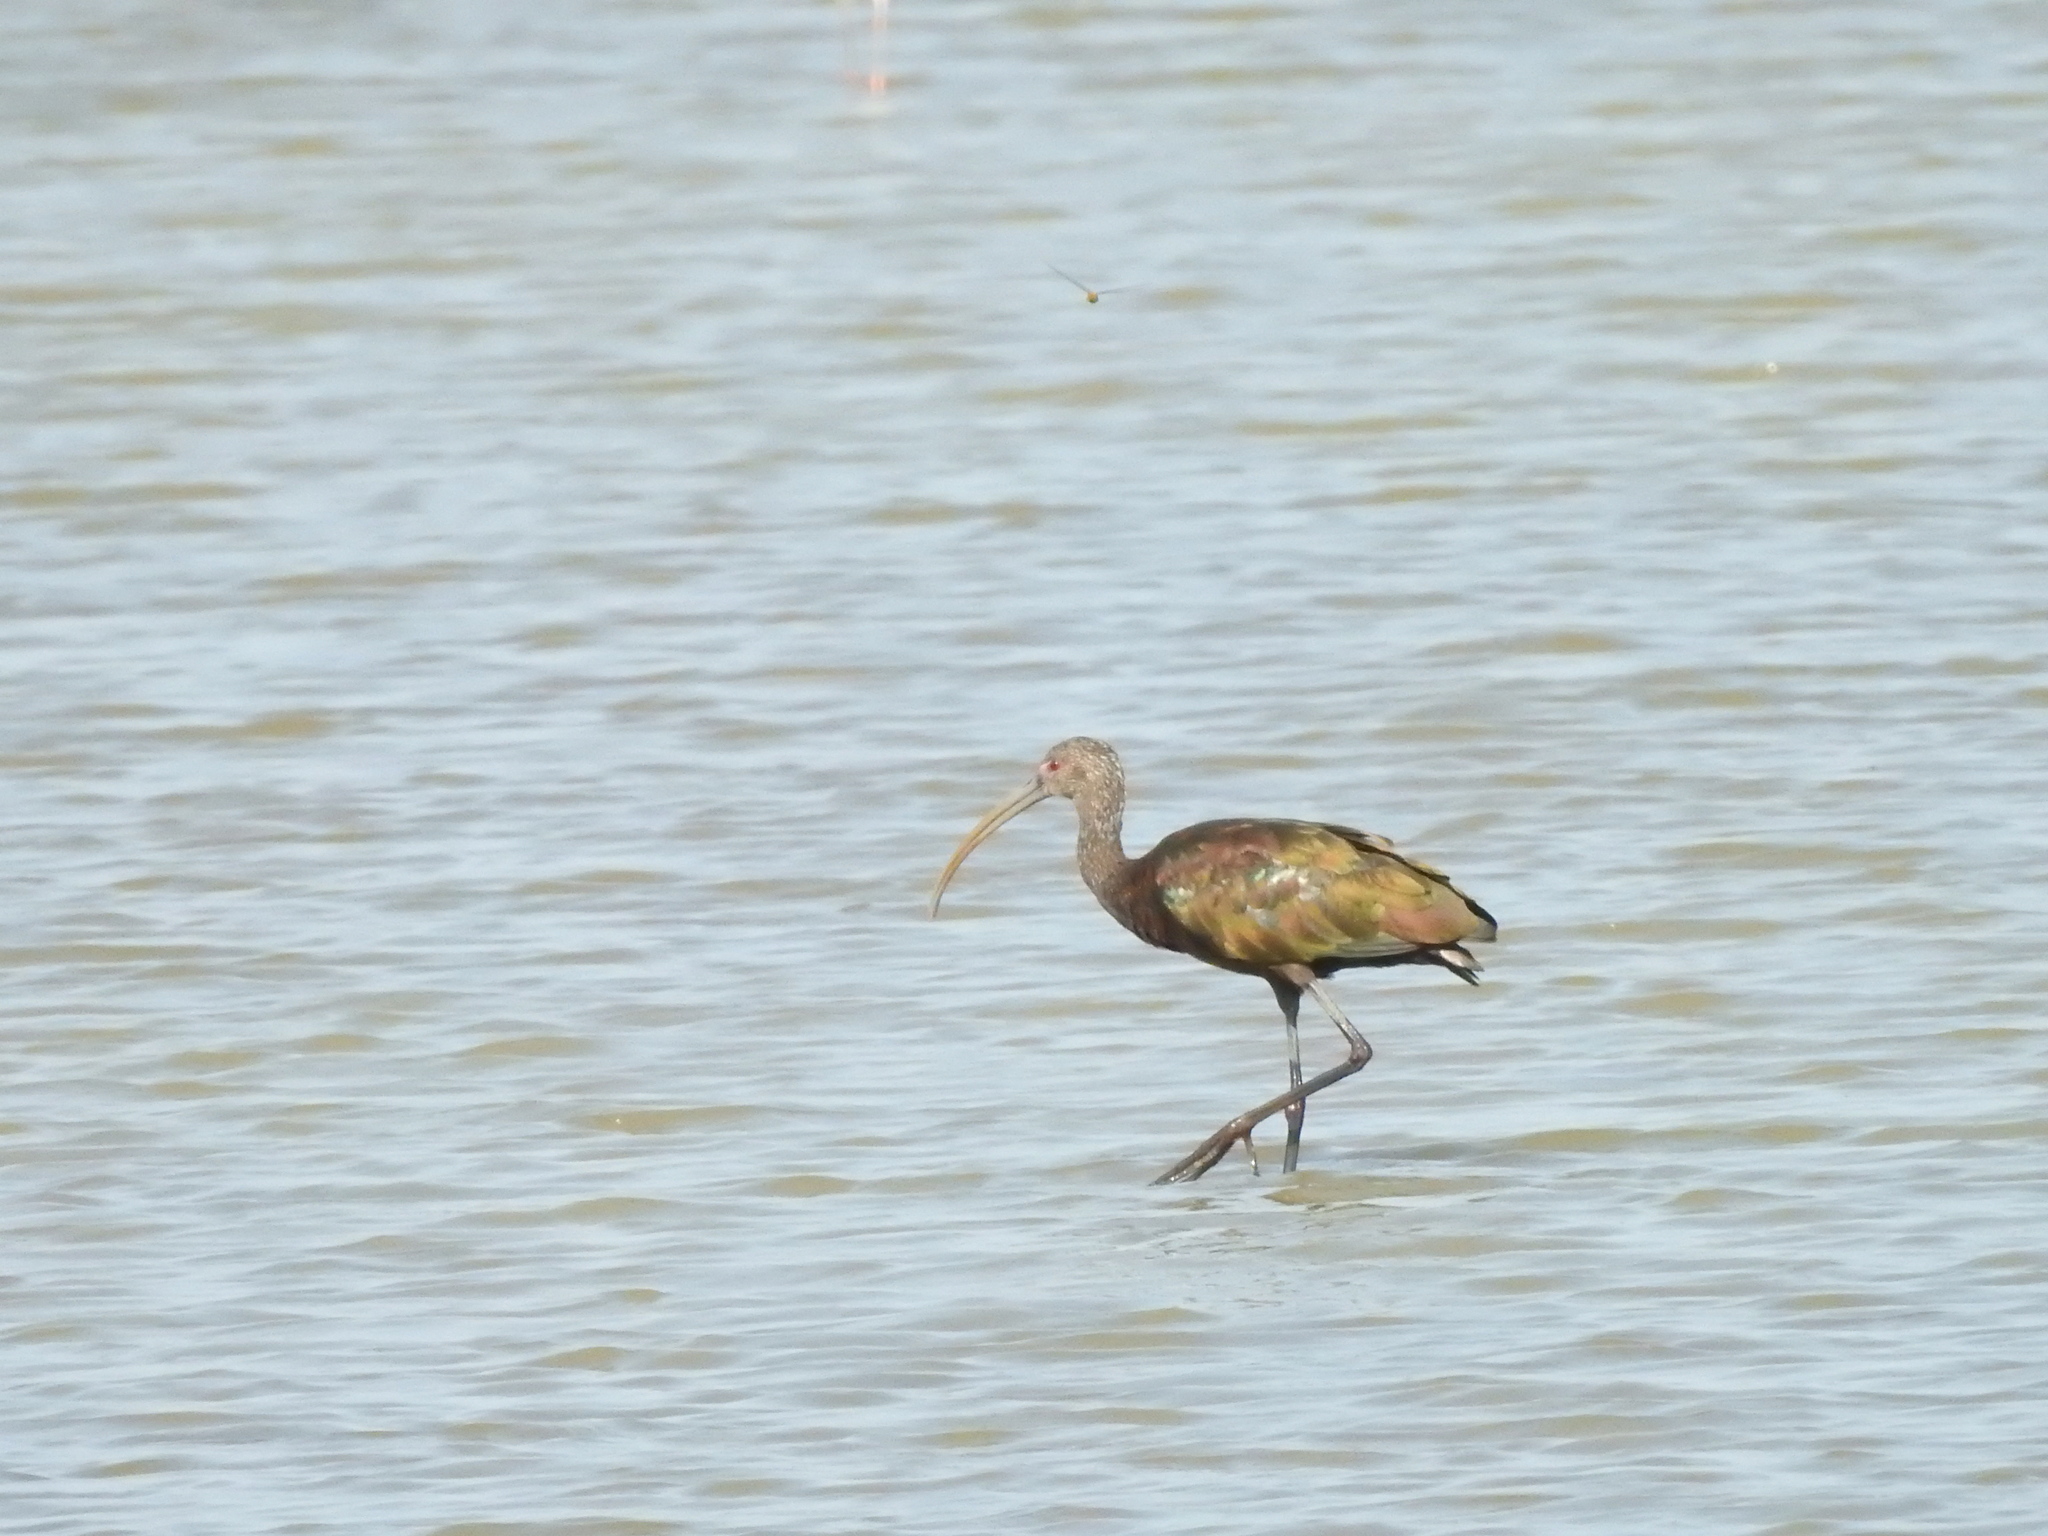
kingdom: Animalia
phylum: Chordata
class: Aves
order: Pelecaniformes
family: Threskiornithidae
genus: Plegadis
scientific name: Plegadis chihi
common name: White-faced ibis
